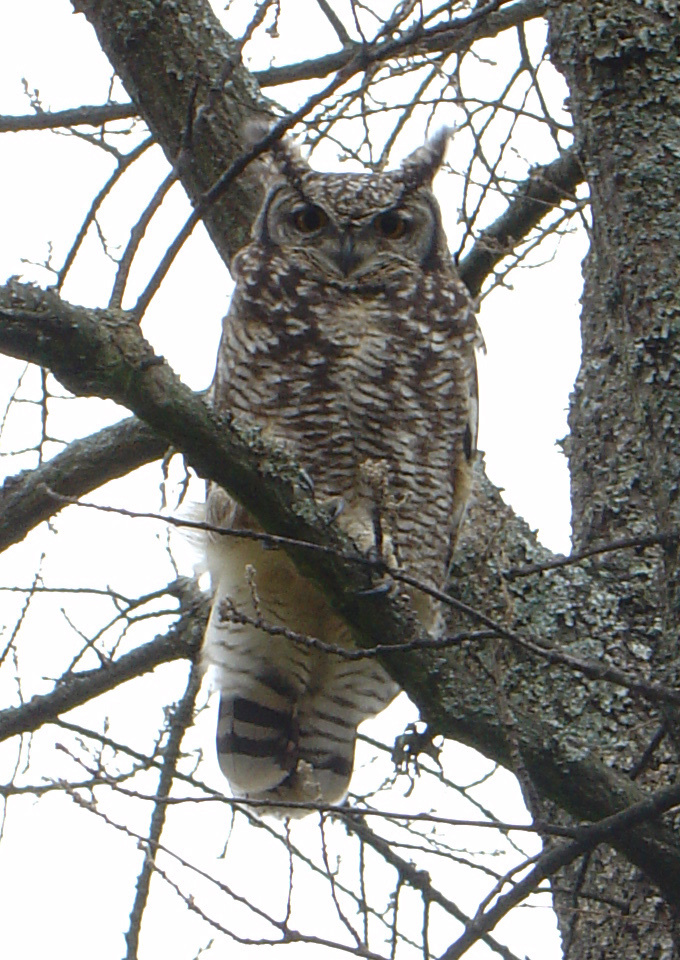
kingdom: Animalia
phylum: Chordata
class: Aves
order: Strigiformes
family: Strigidae
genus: Bubo
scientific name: Bubo africanus
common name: Spotted eagle-owl
